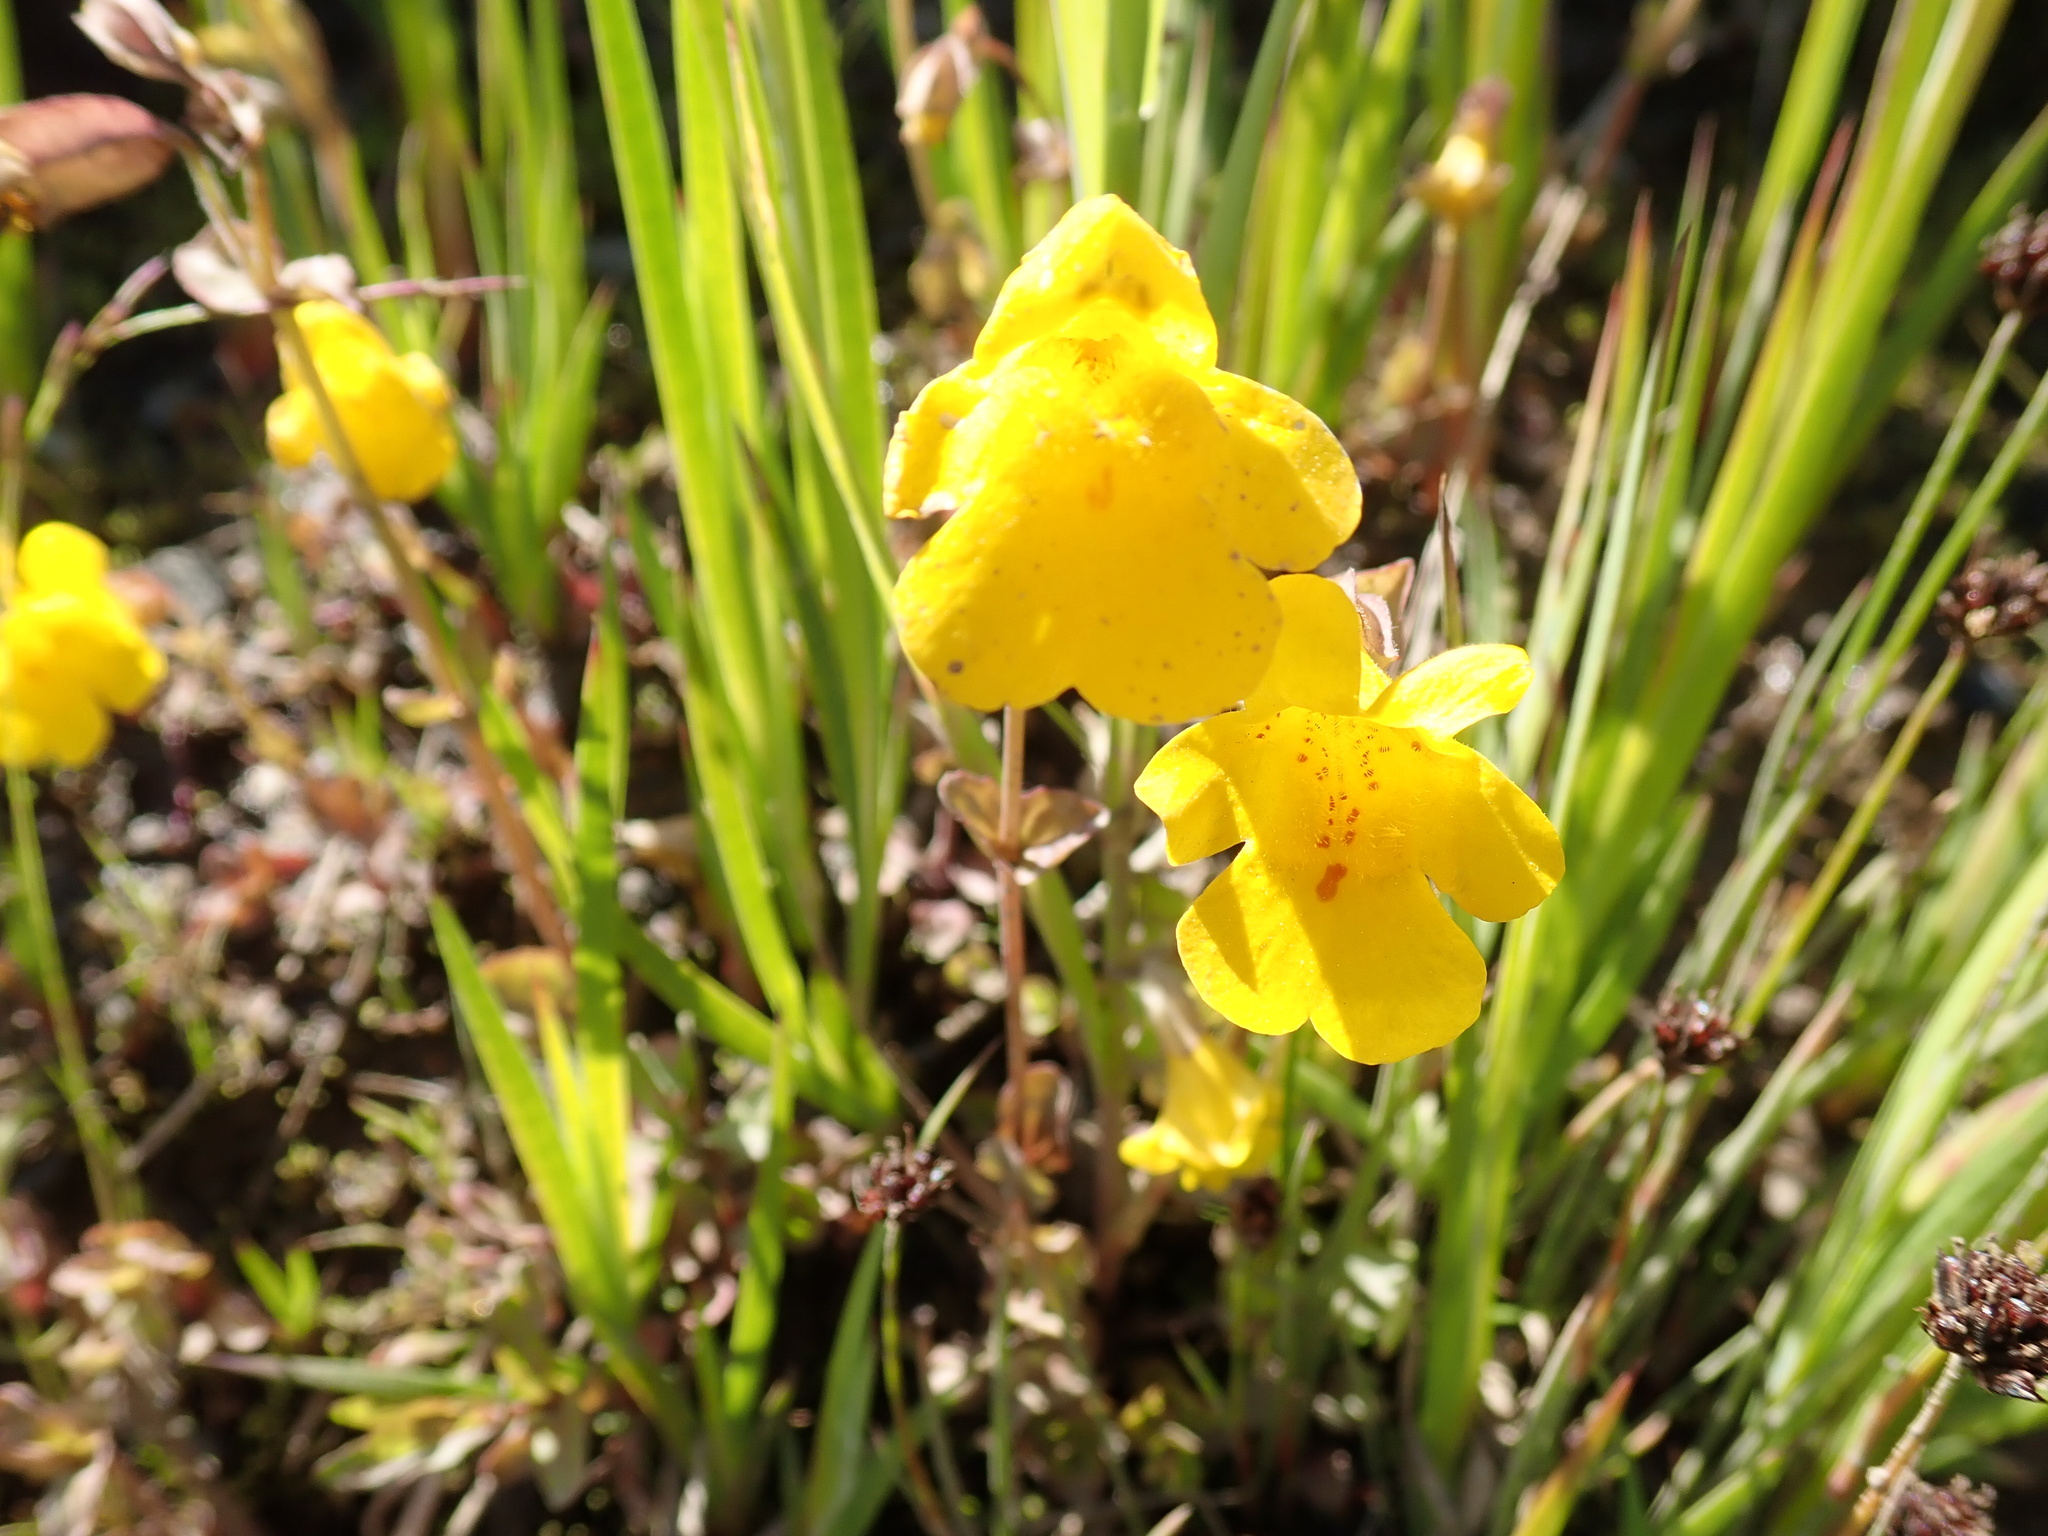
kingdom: Plantae
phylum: Tracheophyta
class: Magnoliopsida
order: Lamiales
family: Phrymaceae
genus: Erythranthe
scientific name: Erythranthe guttata
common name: Monkeyflower
